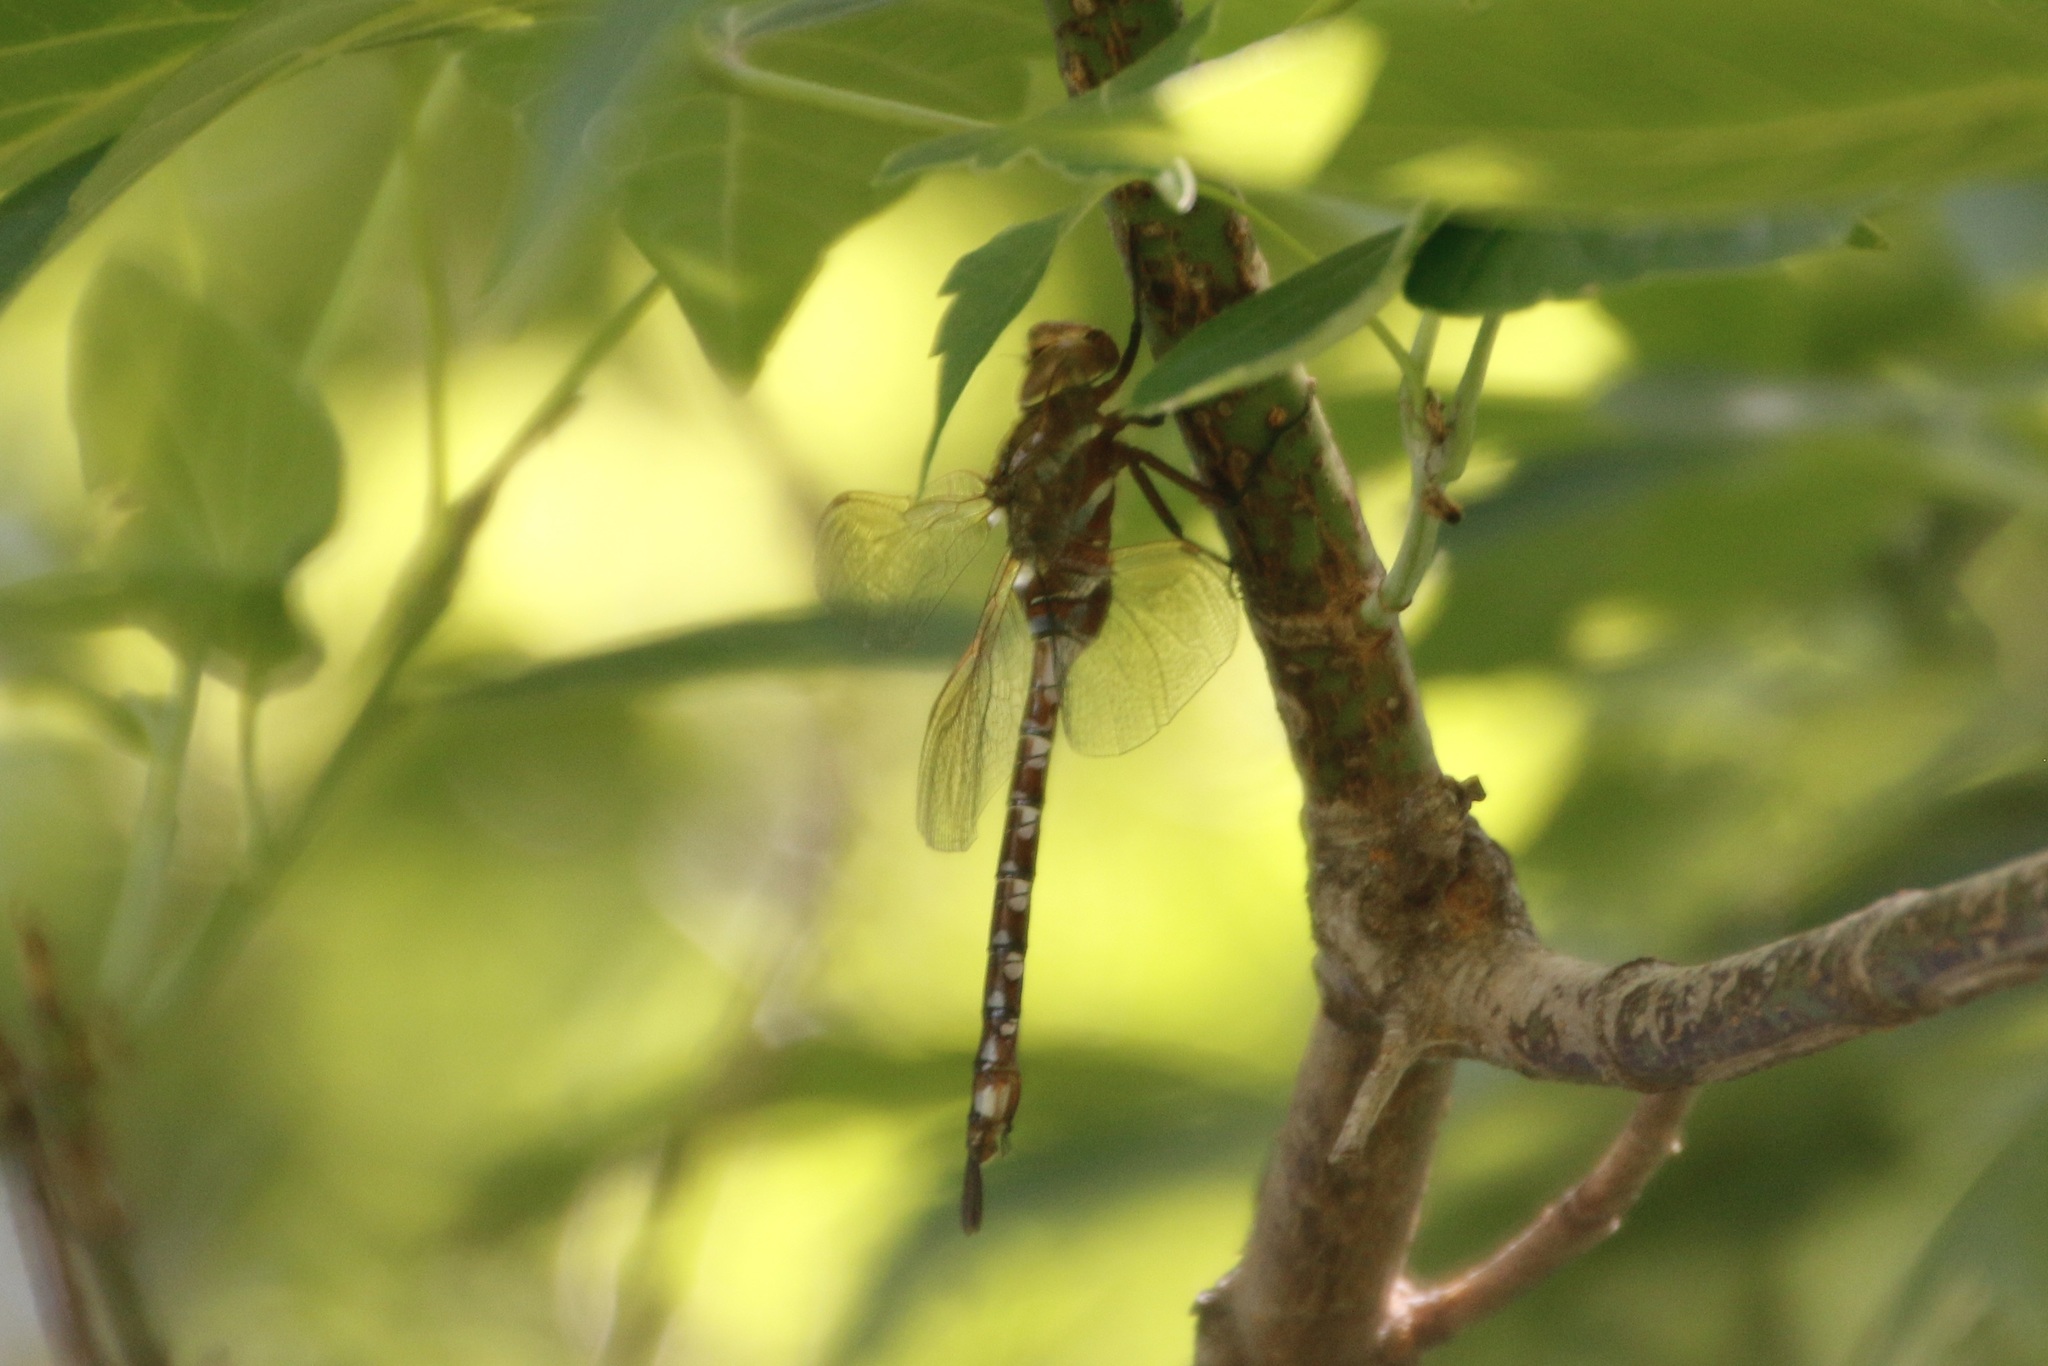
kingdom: Animalia
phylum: Arthropoda
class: Insecta
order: Odonata
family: Aeshnidae
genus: Aeshna
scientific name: Aeshna constricta
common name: Lance-tipped darner
